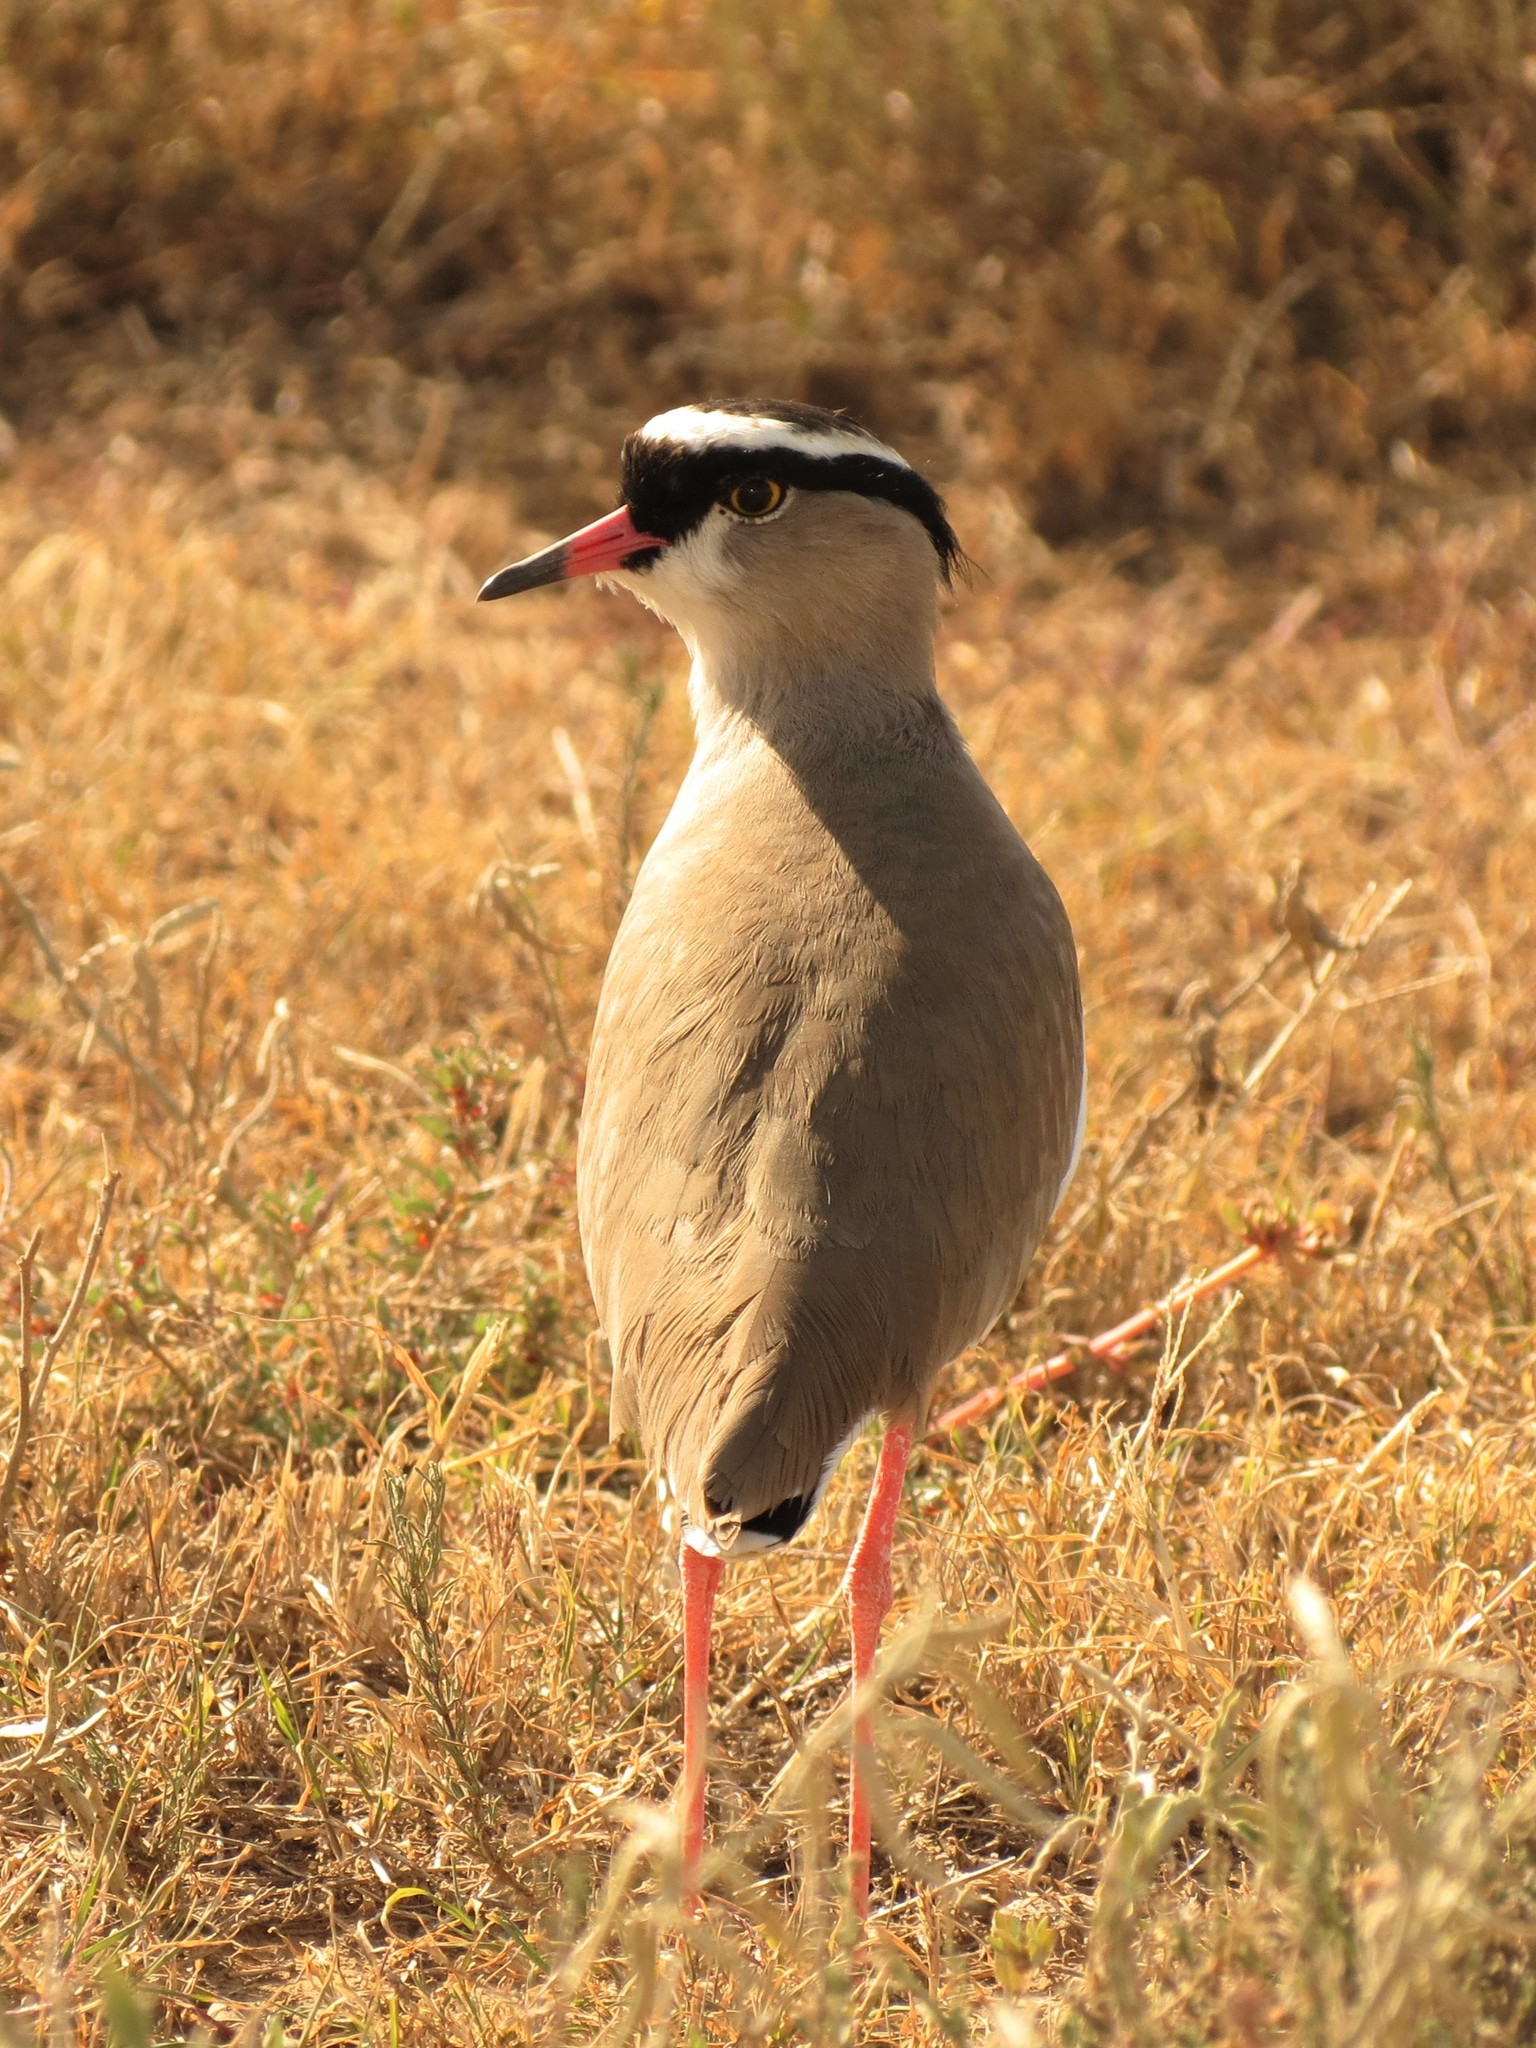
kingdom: Animalia
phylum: Chordata
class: Aves
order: Charadriiformes
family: Charadriidae
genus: Vanellus
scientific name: Vanellus coronatus
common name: Crowned lapwing
